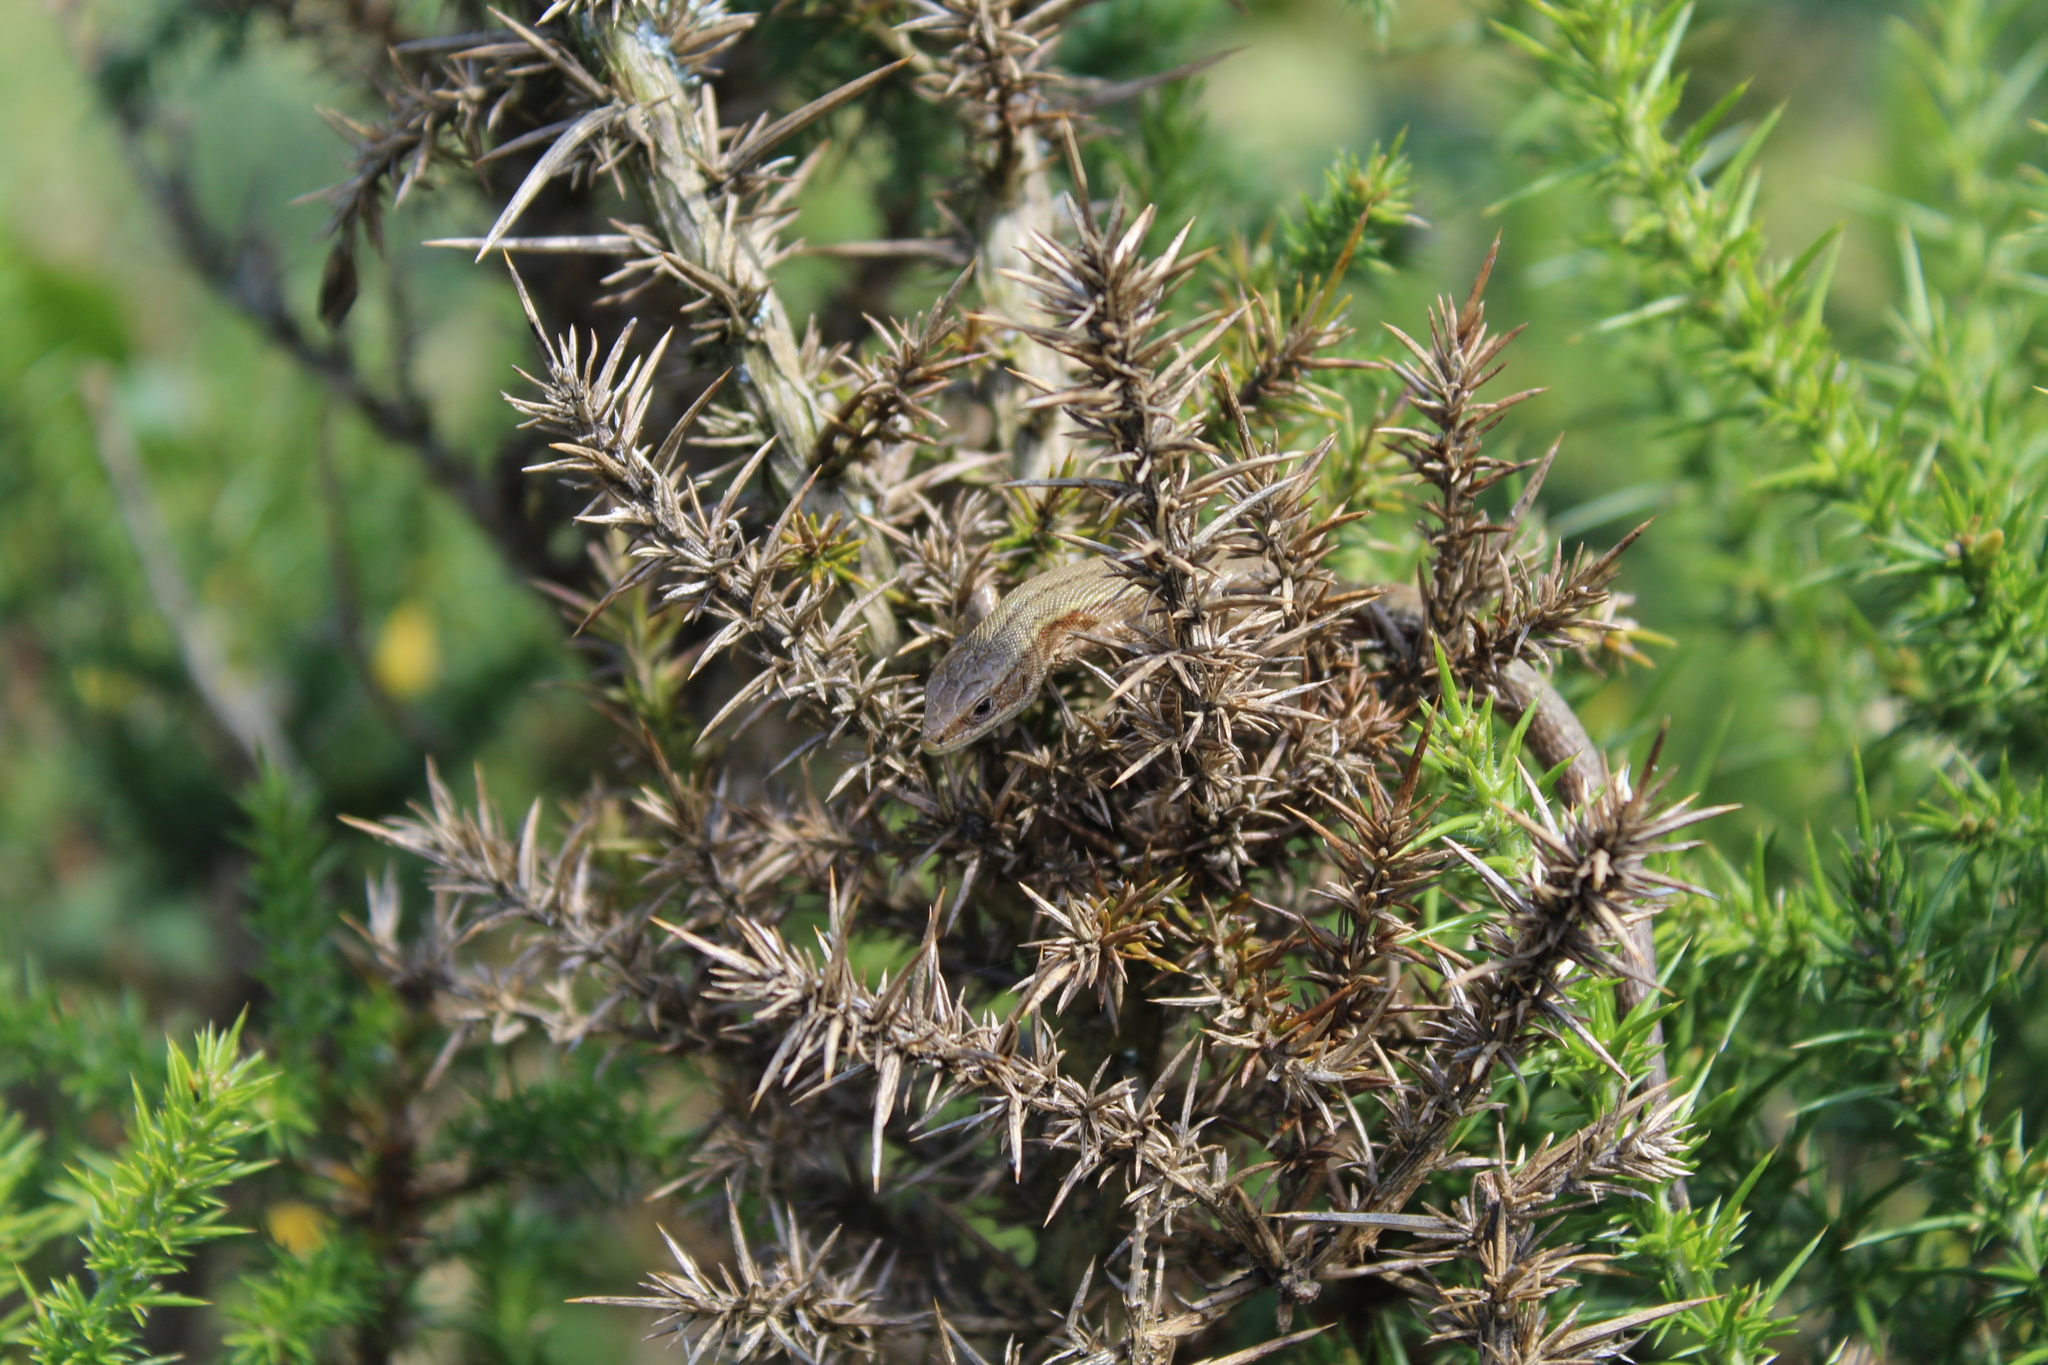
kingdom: Animalia
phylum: Chordata
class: Squamata
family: Lacertidae
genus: Zootoca
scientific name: Zootoca vivipara
